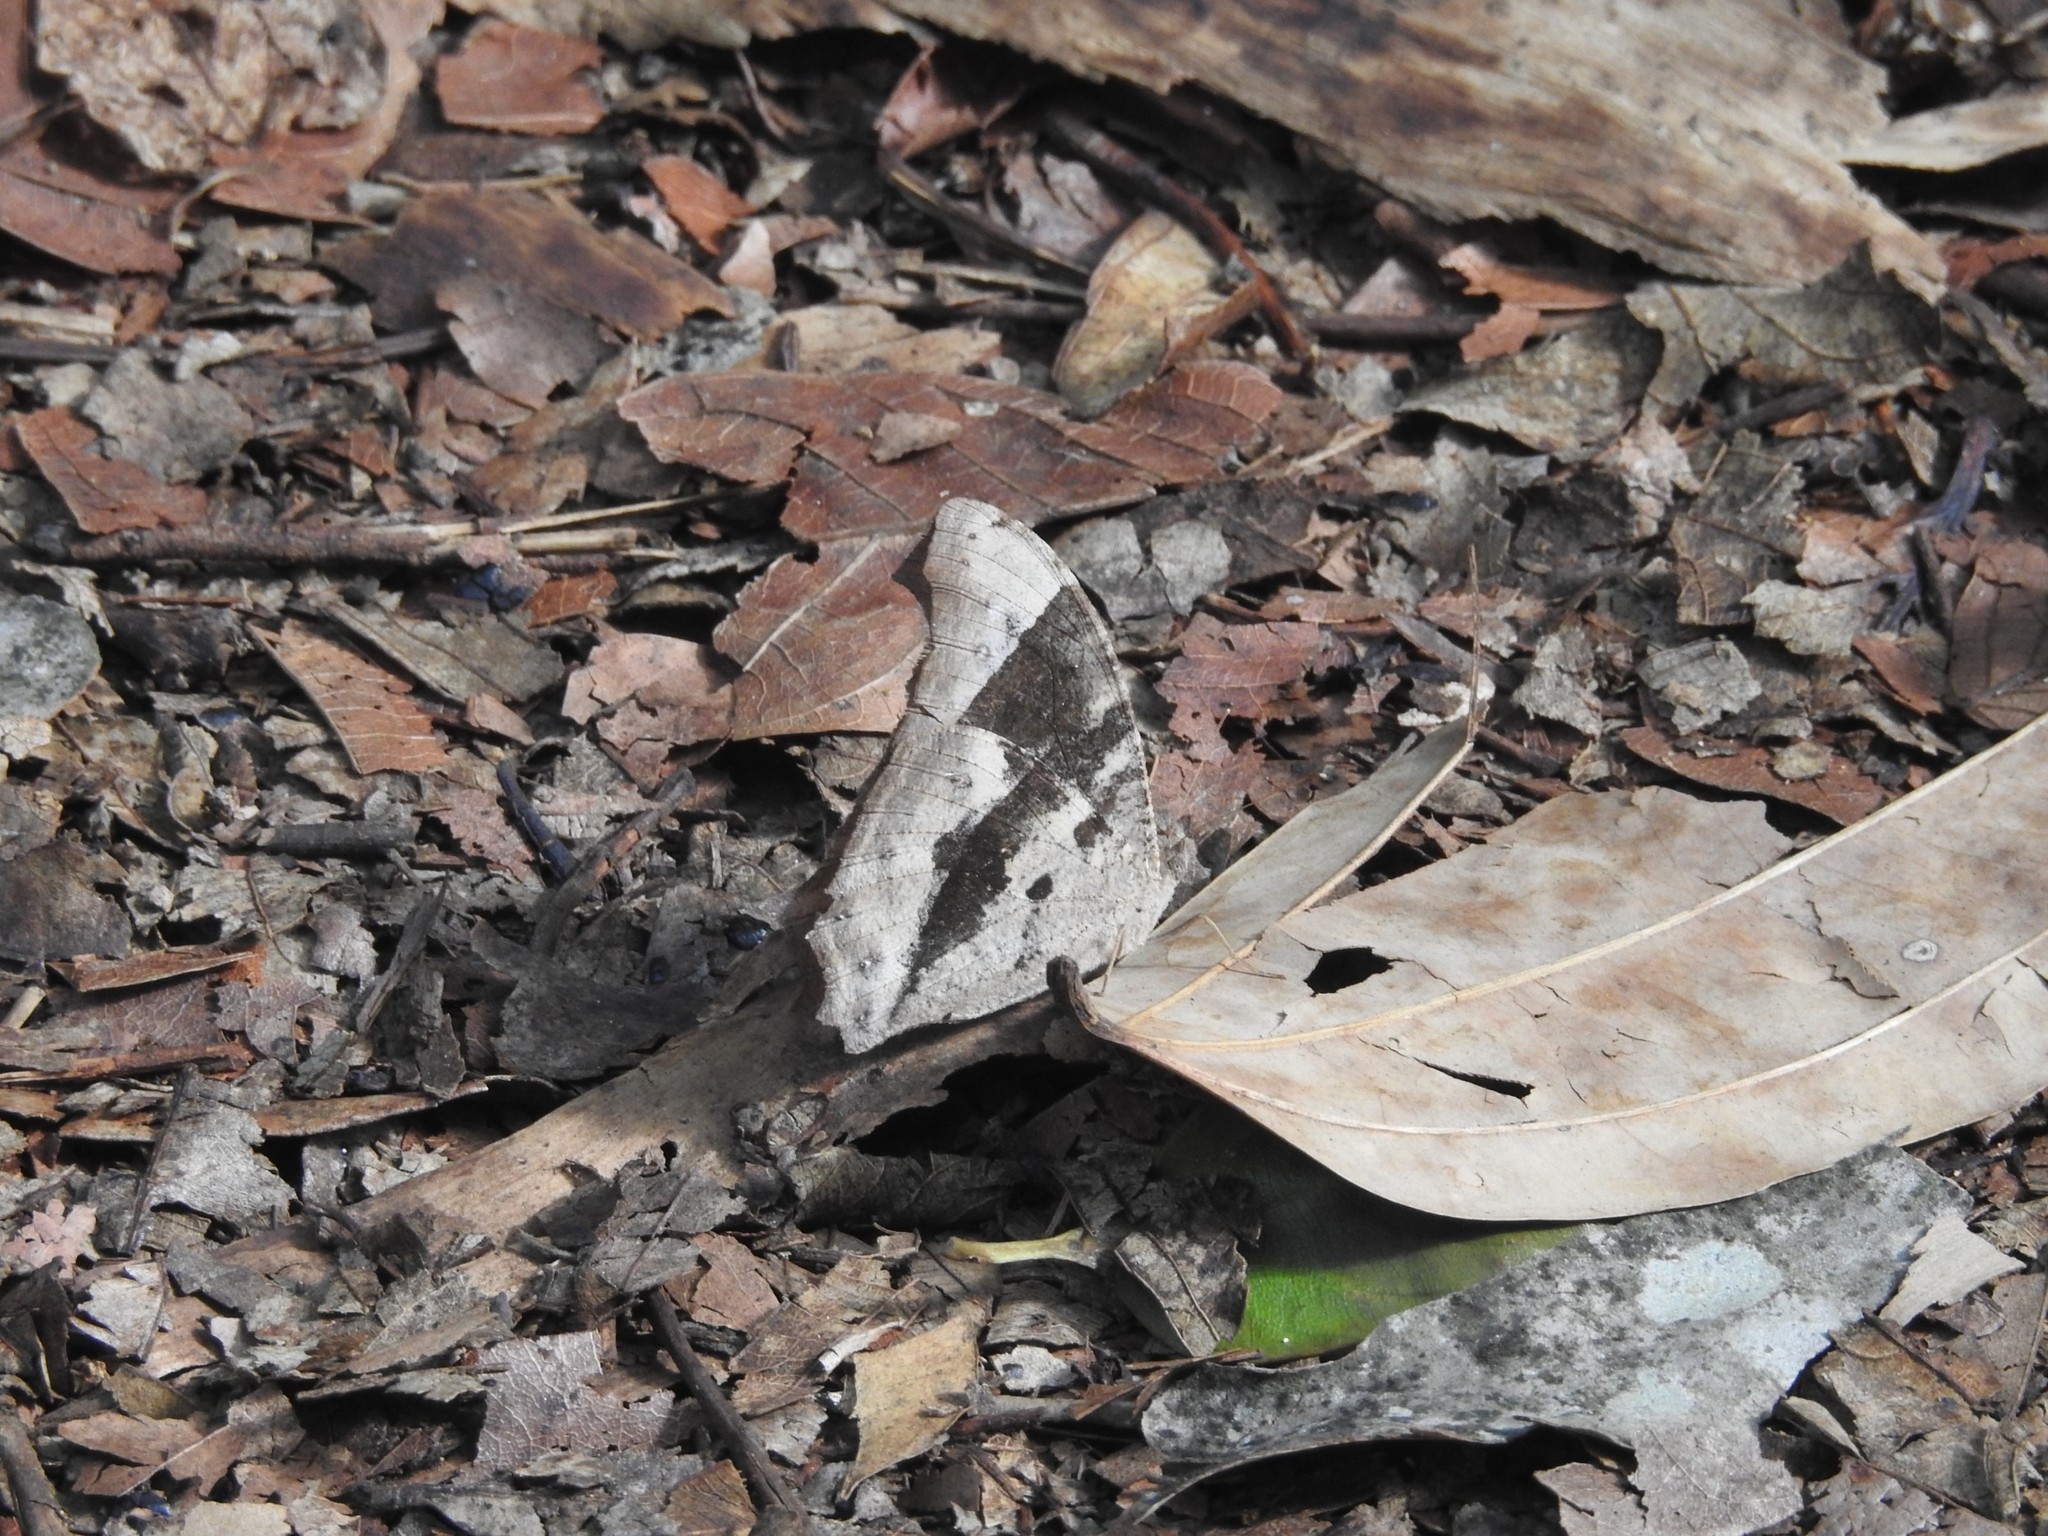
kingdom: Animalia
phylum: Arthropoda
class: Insecta
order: Lepidoptera
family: Nymphalidae
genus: Melanitis
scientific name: Melanitis leda
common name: Twilight brown
